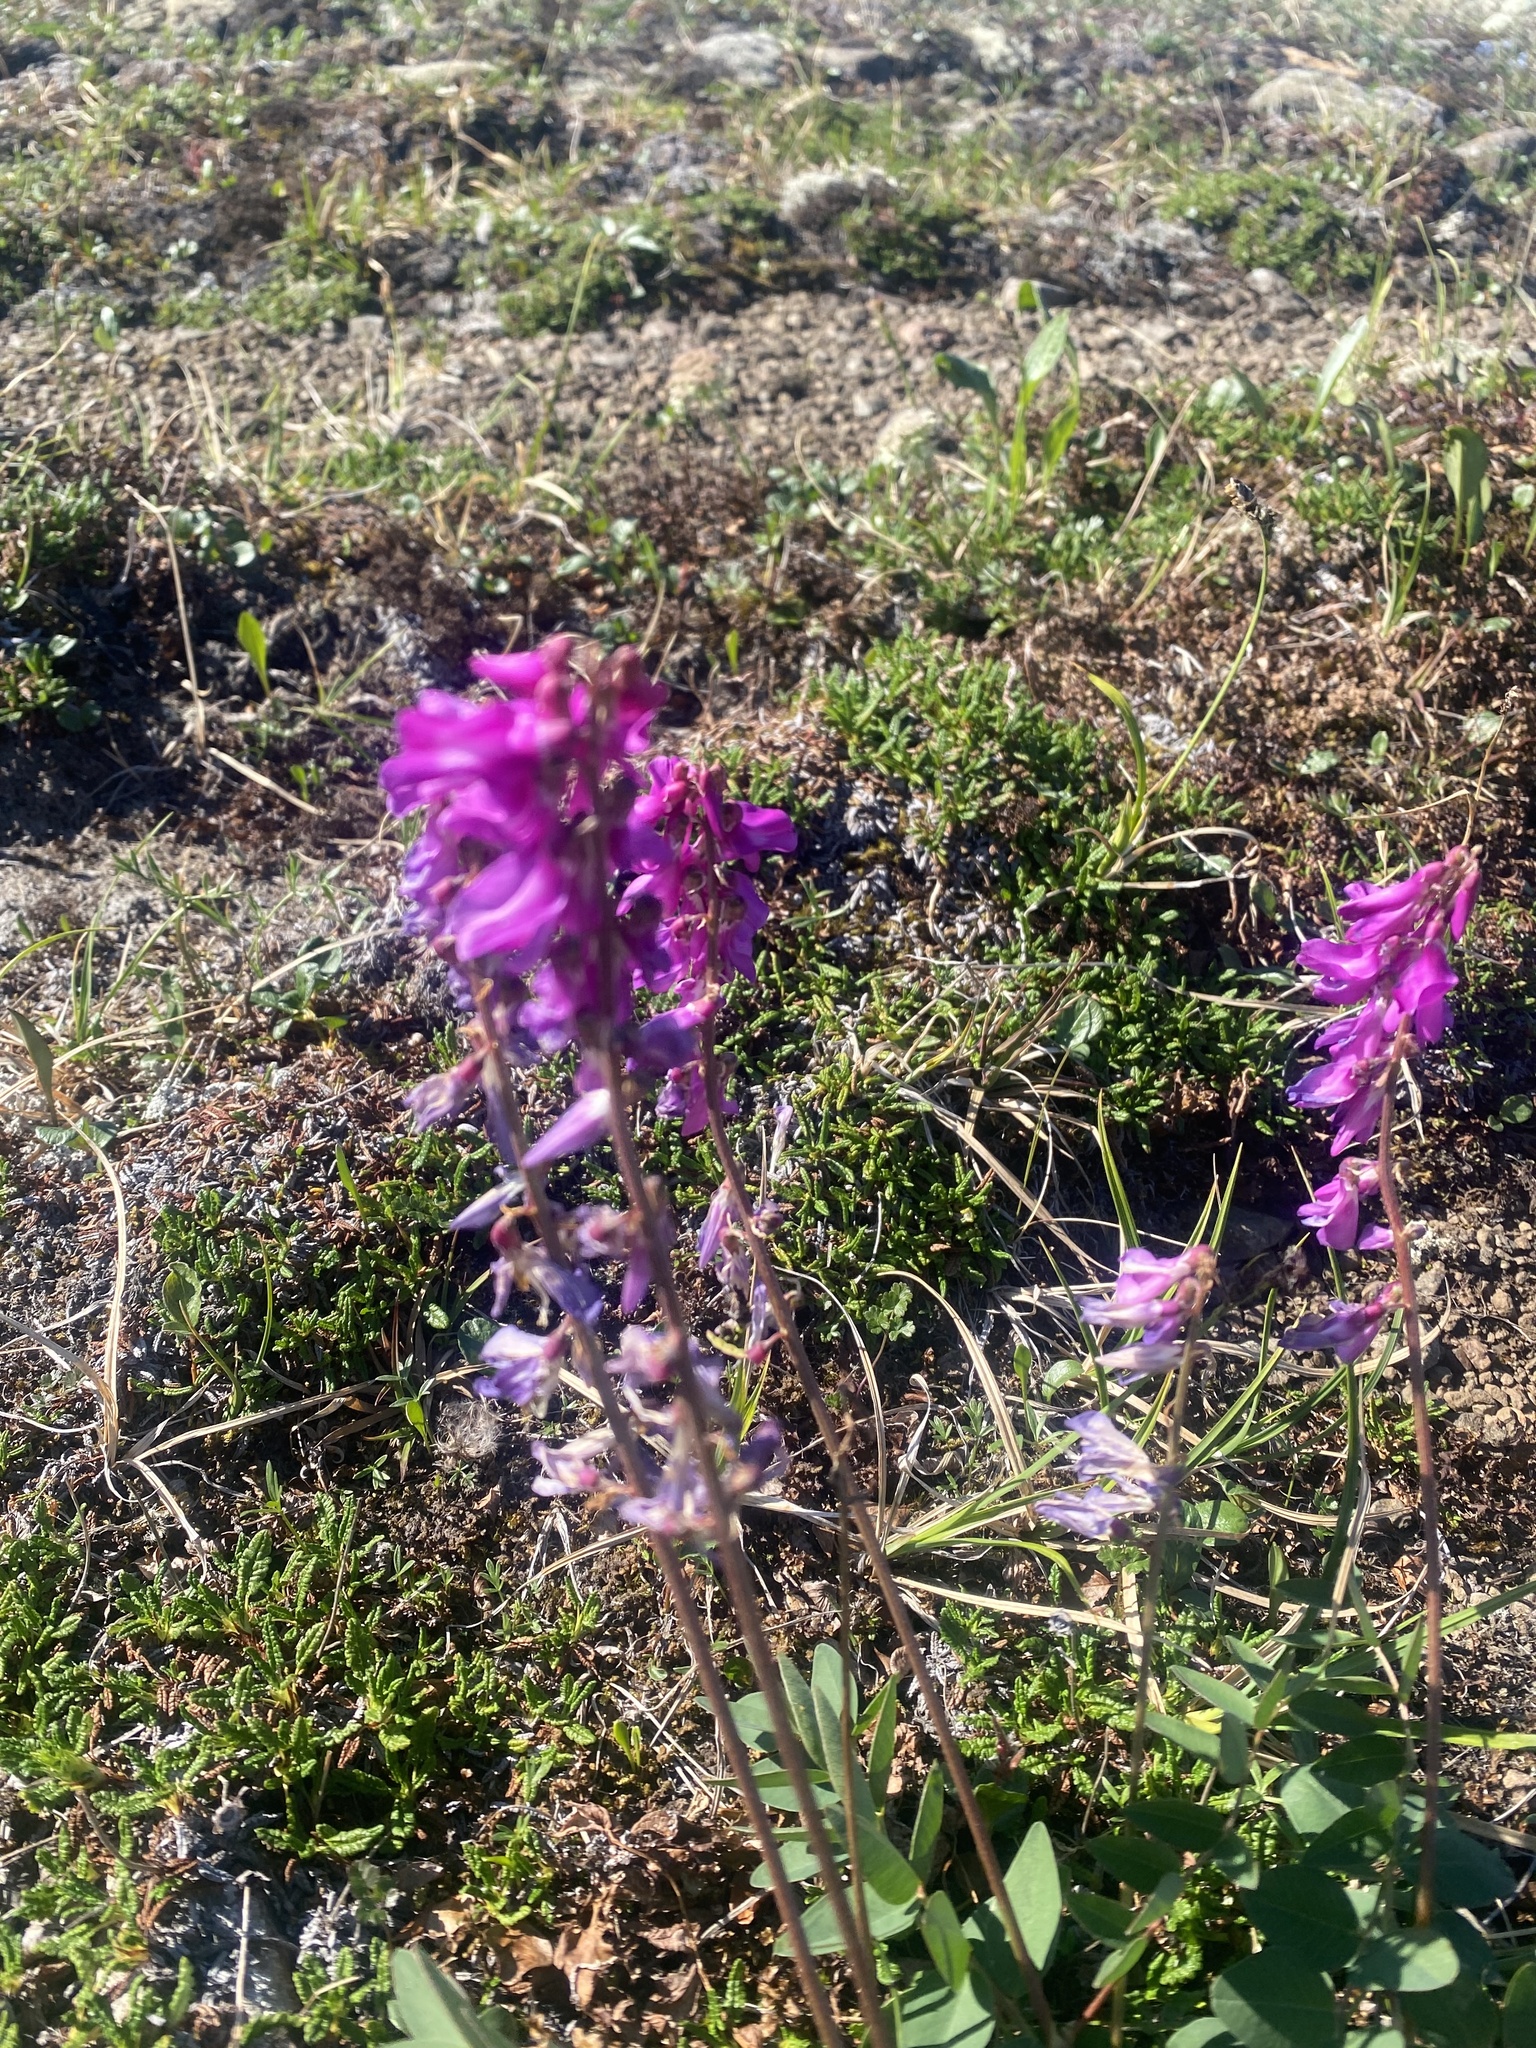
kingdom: Plantae
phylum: Tracheophyta
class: Magnoliopsida
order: Fabales
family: Fabaceae
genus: Hedysarum
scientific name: Hedysarum hedysaroides
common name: Alpine french-honeysuckle
